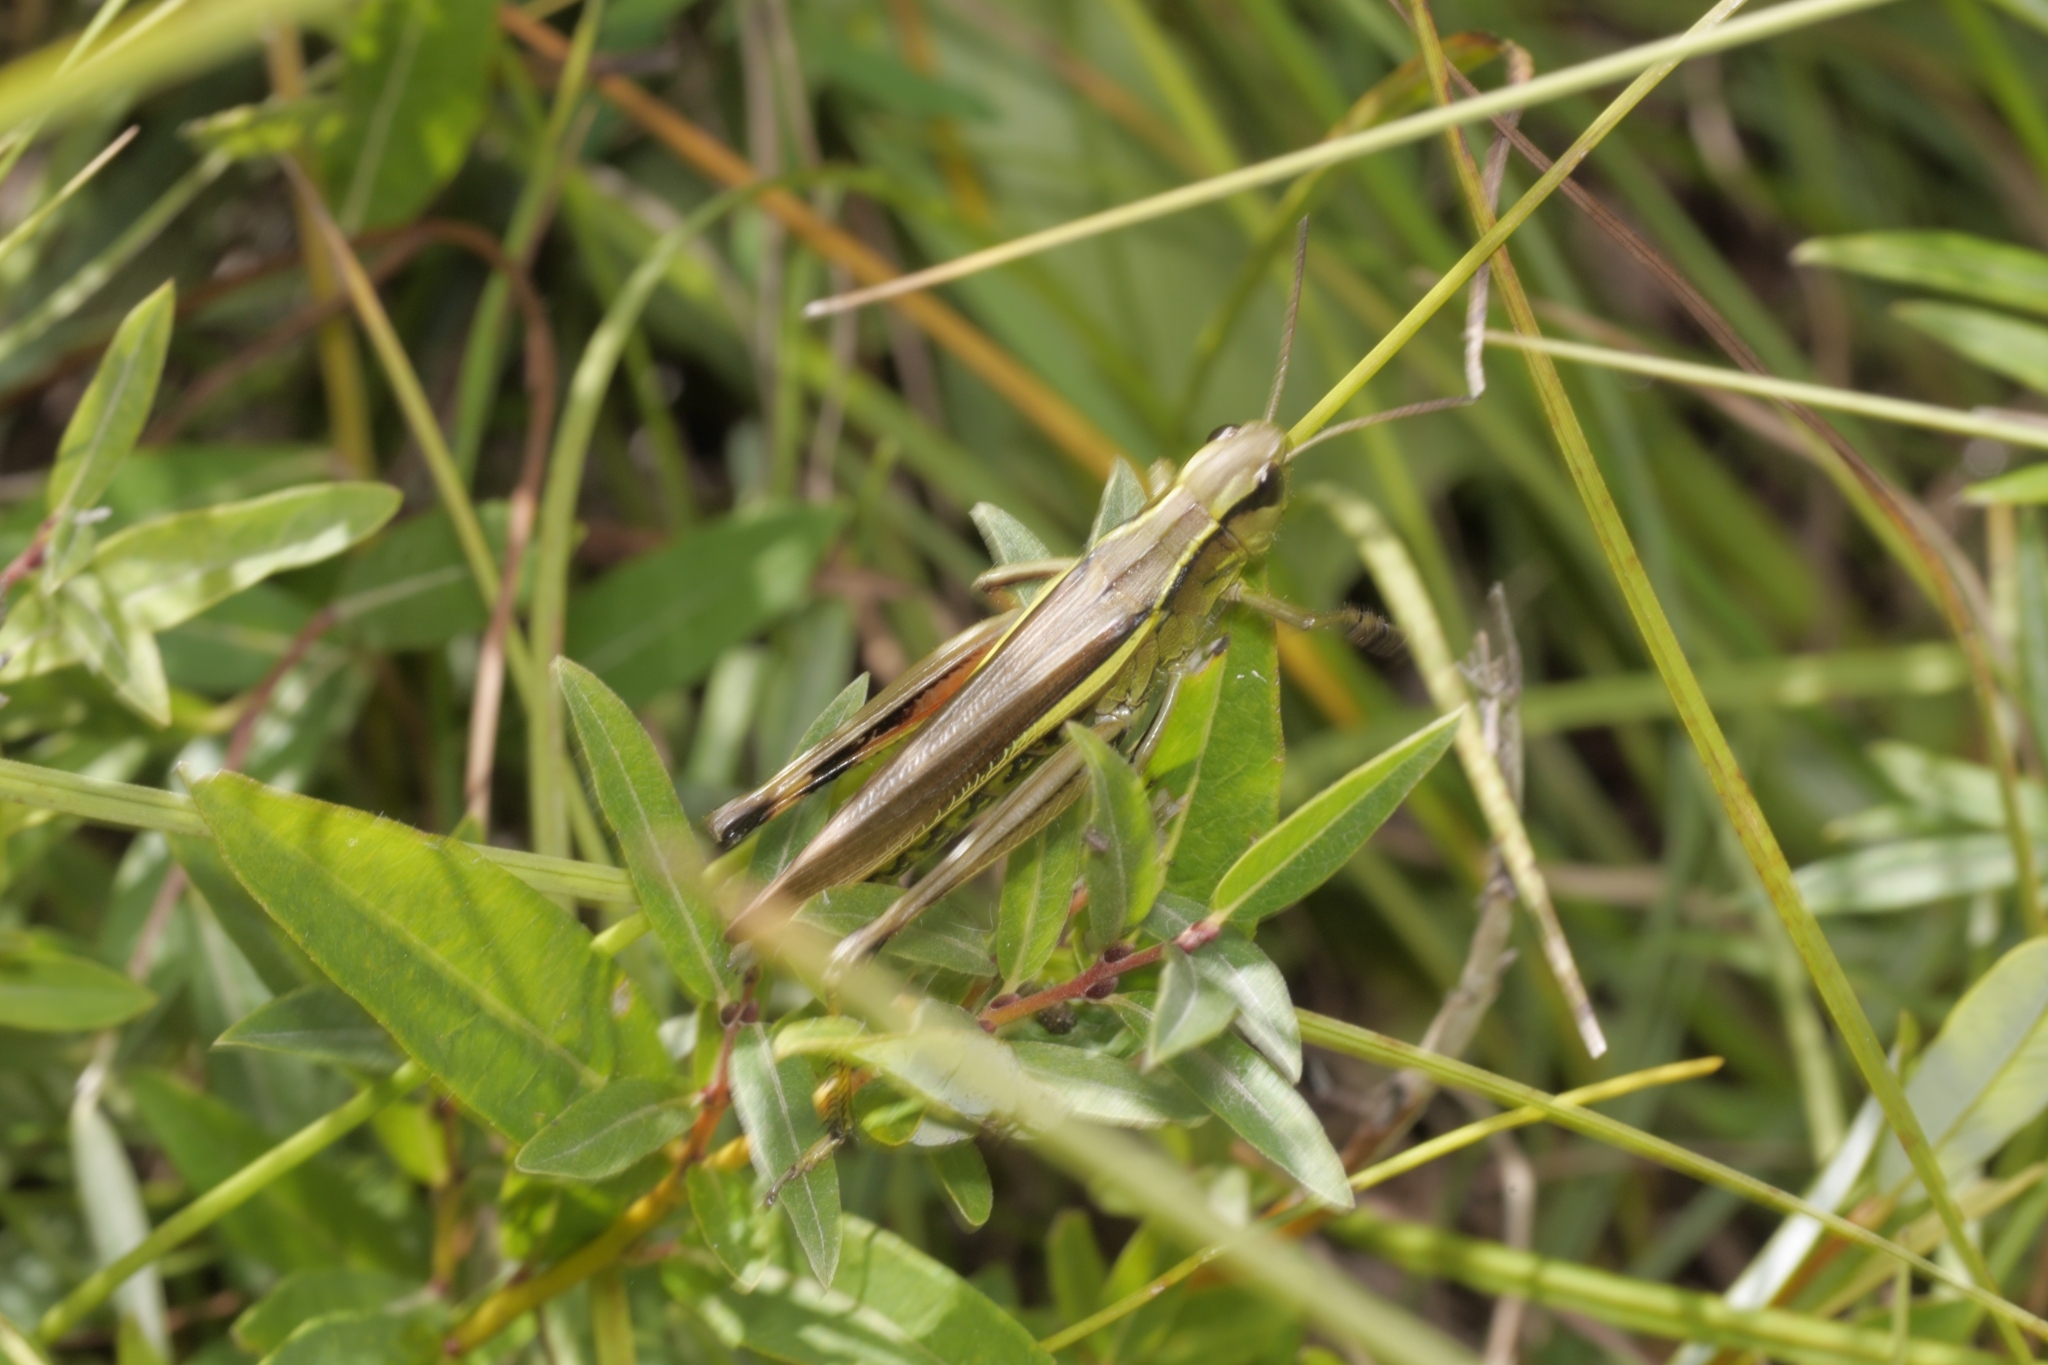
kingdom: Animalia
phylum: Arthropoda
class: Insecta
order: Orthoptera
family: Acrididae
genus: Stethophyma
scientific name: Stethophyma grossum
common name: Large marsh grasshopper
